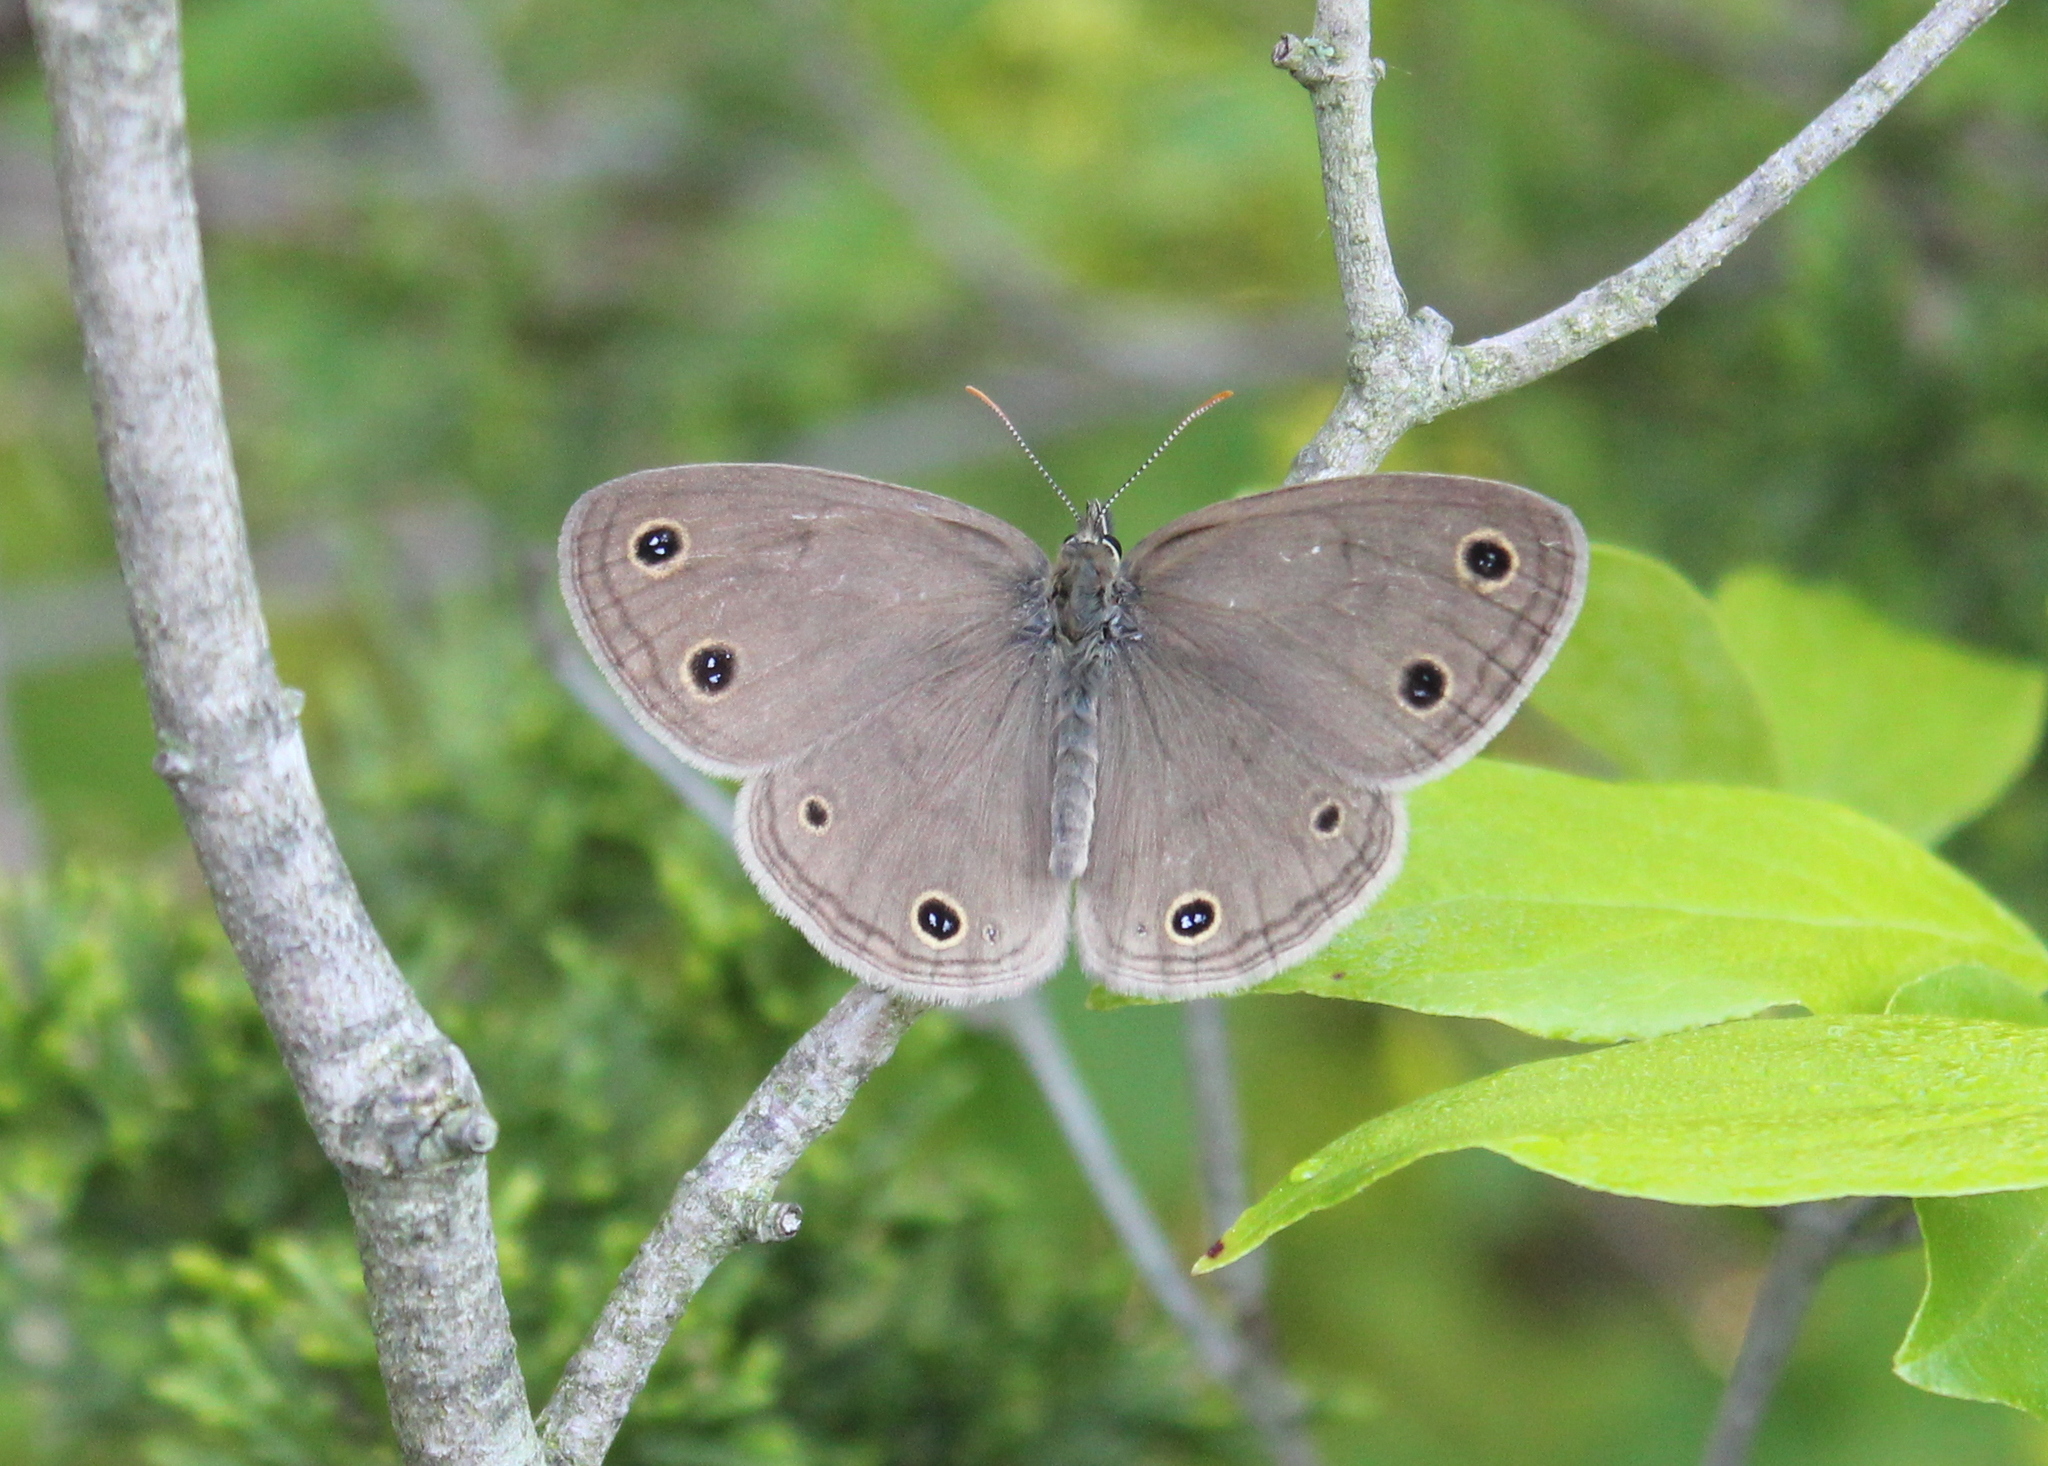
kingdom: Animalia
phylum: Arthropoda
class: Insecta
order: Lepidoptera
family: Nymphalidae
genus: Euptychia
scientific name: Euptychia cymela
